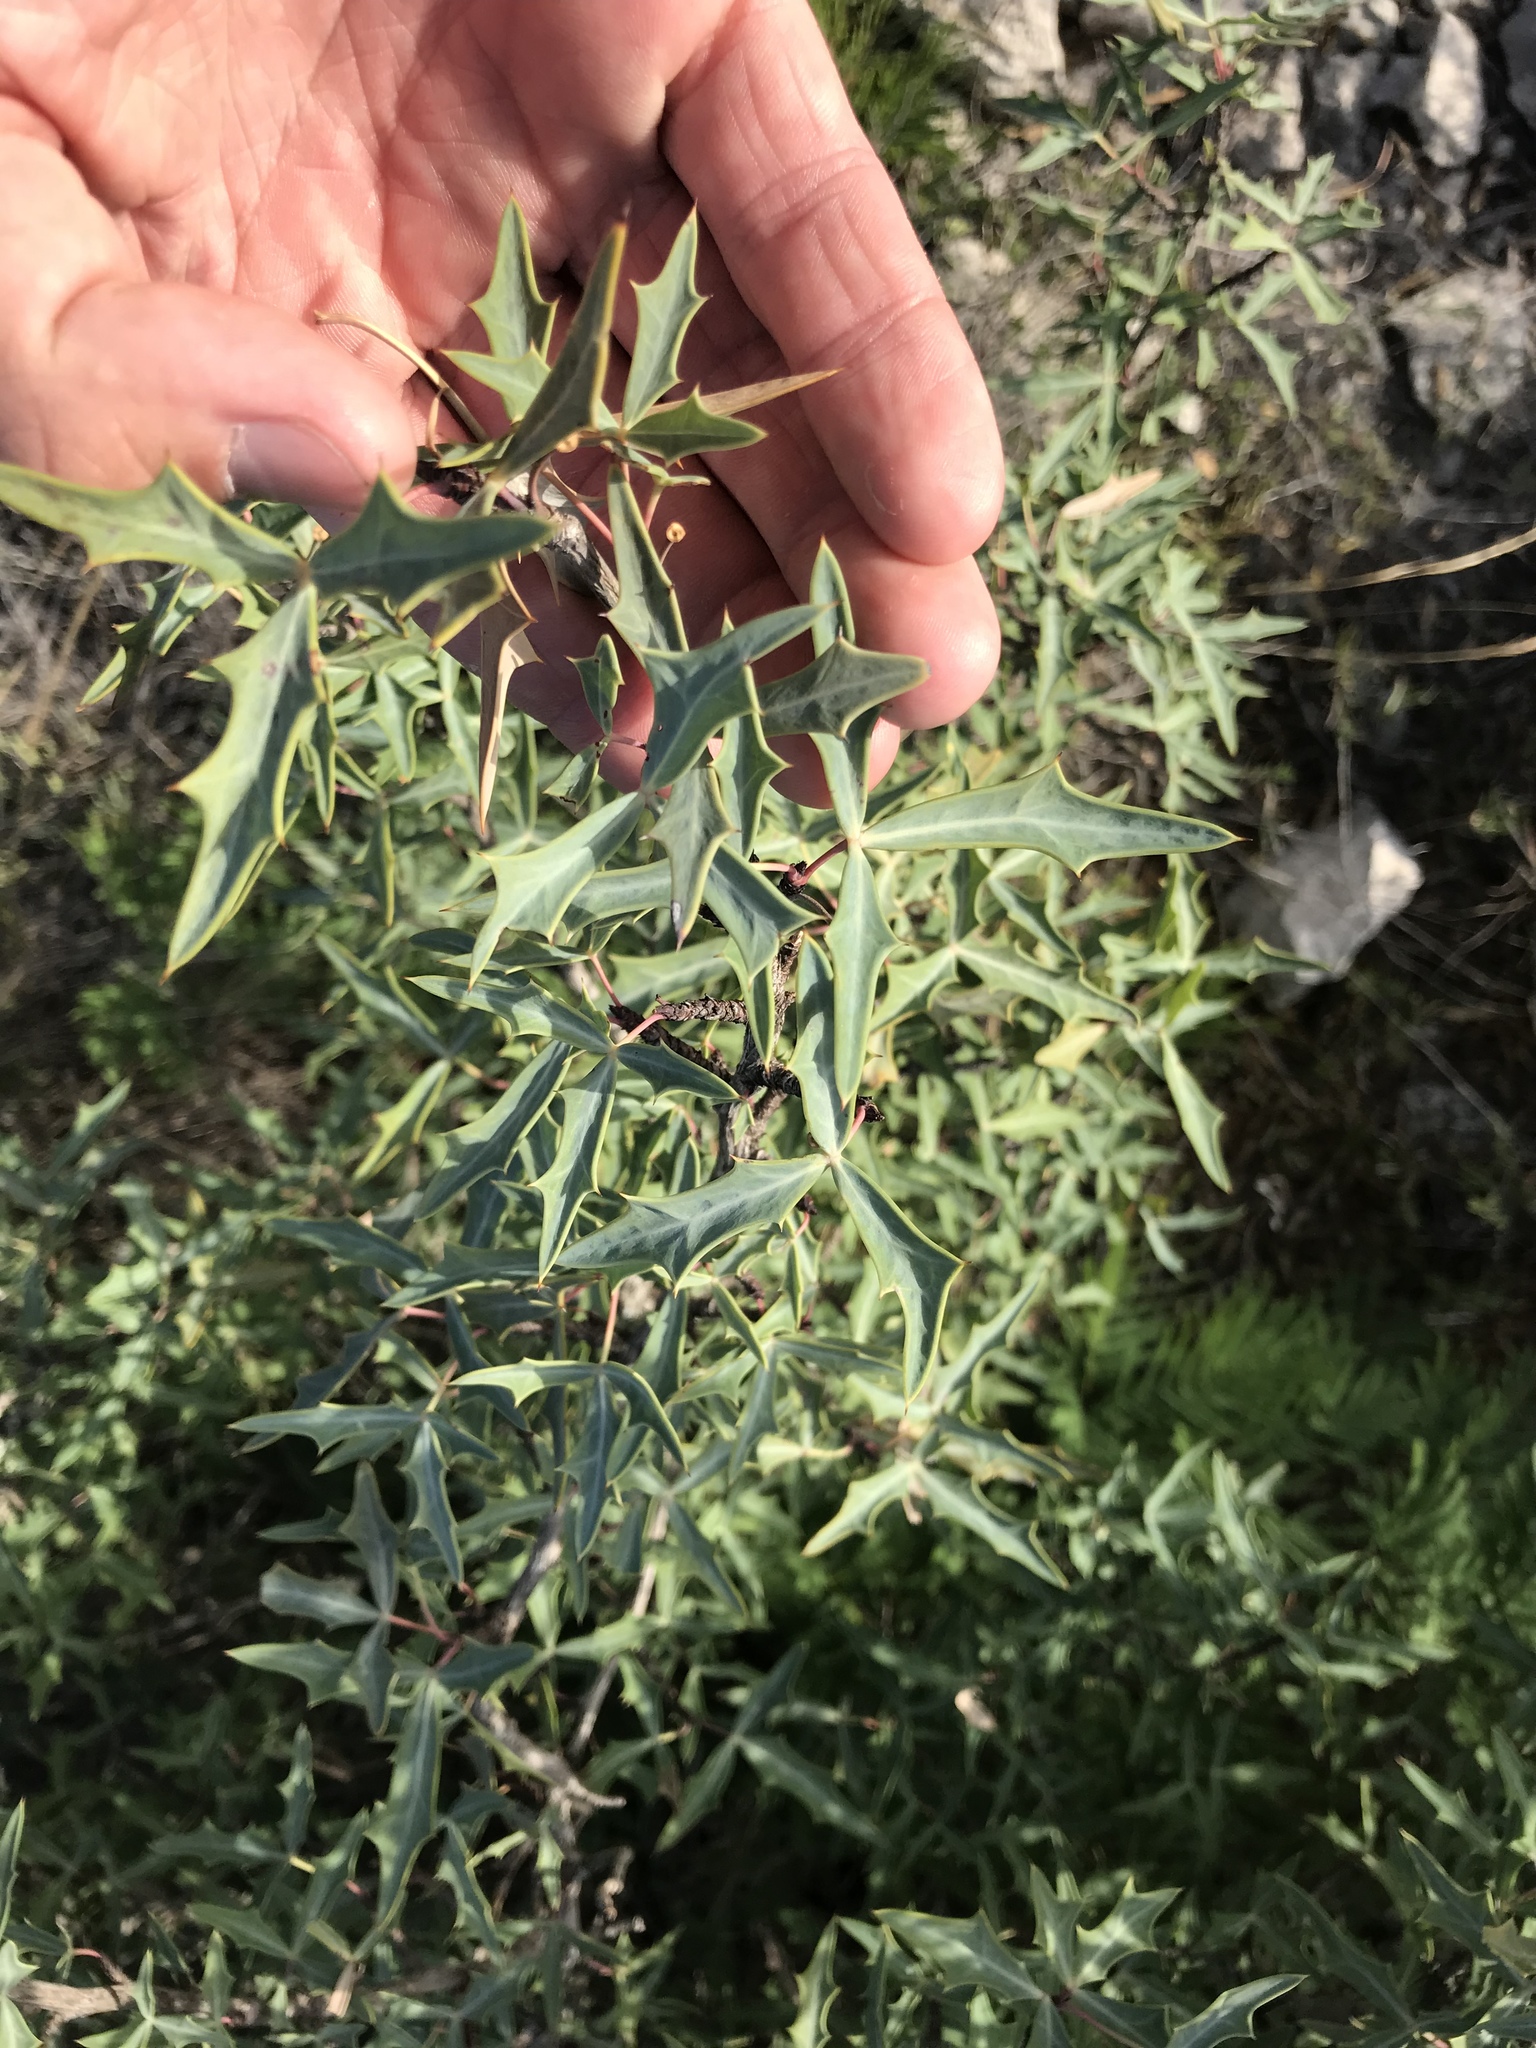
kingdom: Plantae
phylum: Tracheophyta
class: Magnoliopsida
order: Ranunculales
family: Berberidaceae
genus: Alloberberis
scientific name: Alloberberis trifoliolata
